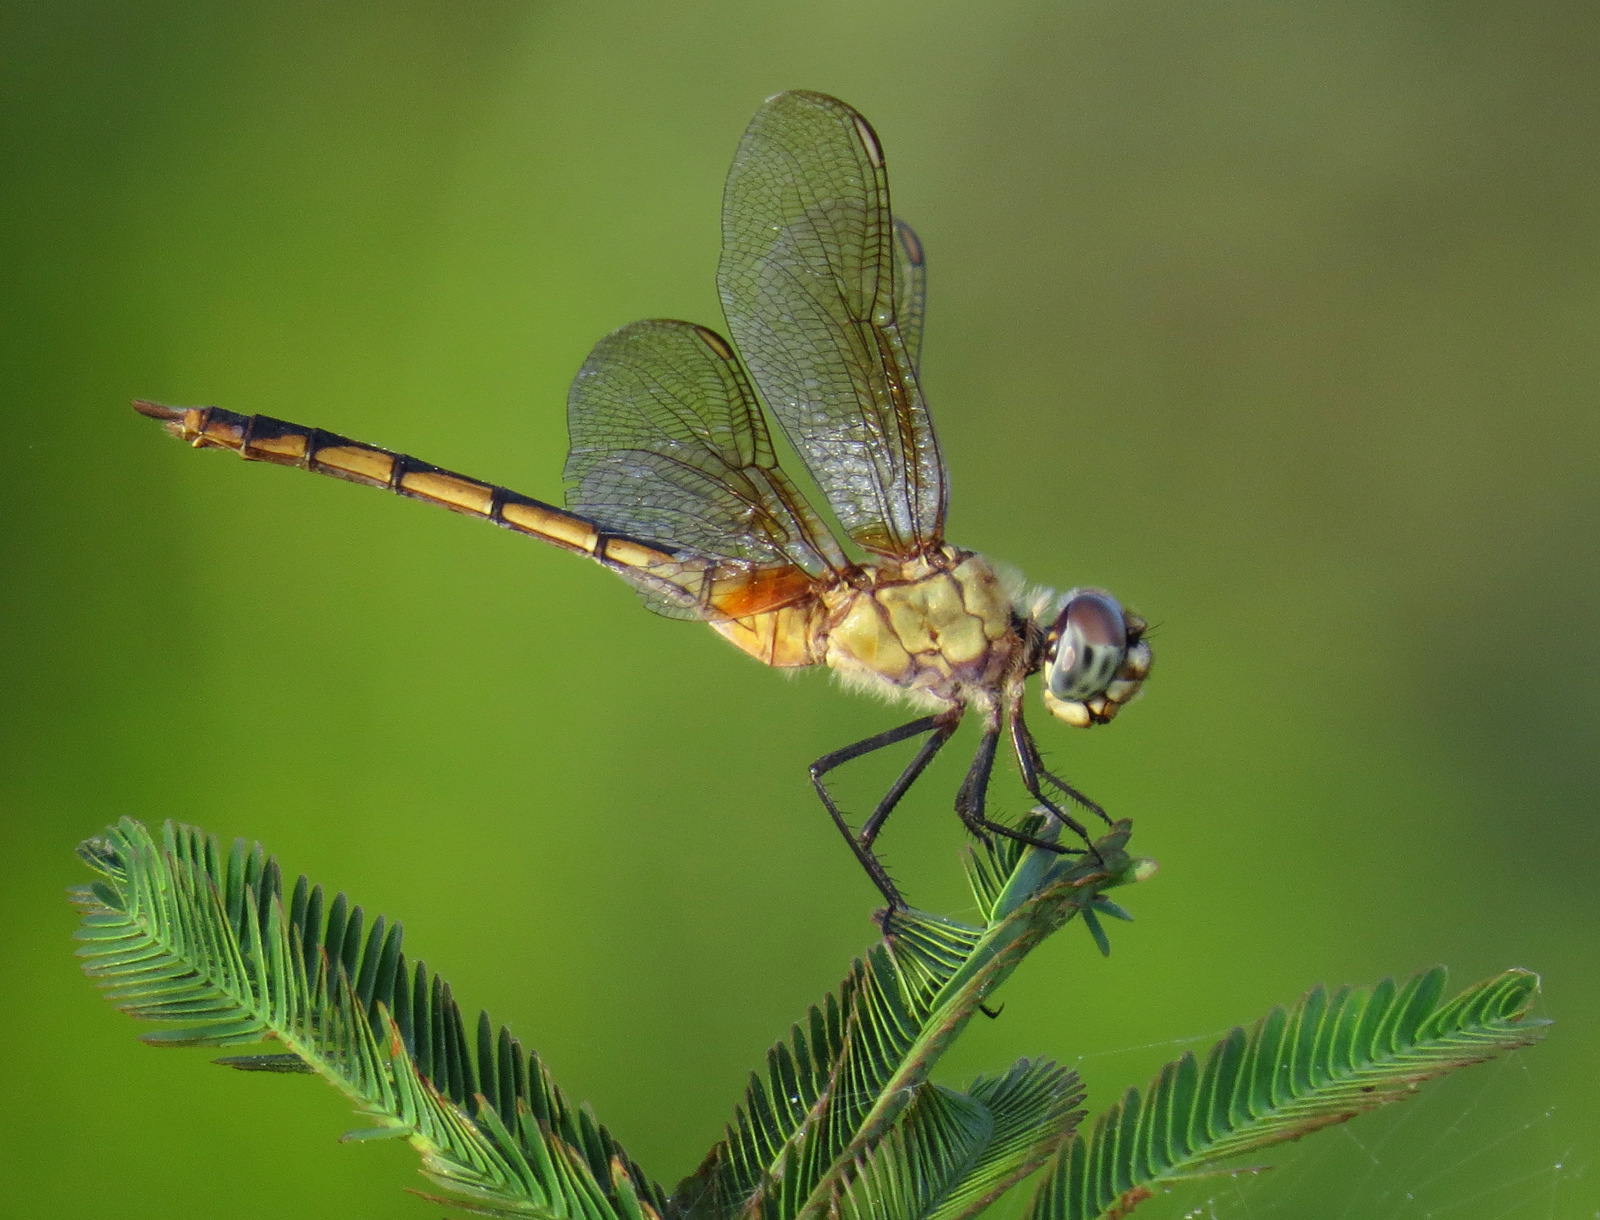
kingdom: Animalia
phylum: Arthropoda
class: Insecta
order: Odonata
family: Libellulidae
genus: Brachymesia
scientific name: Brachymesia herbida
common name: Tawny pennant
